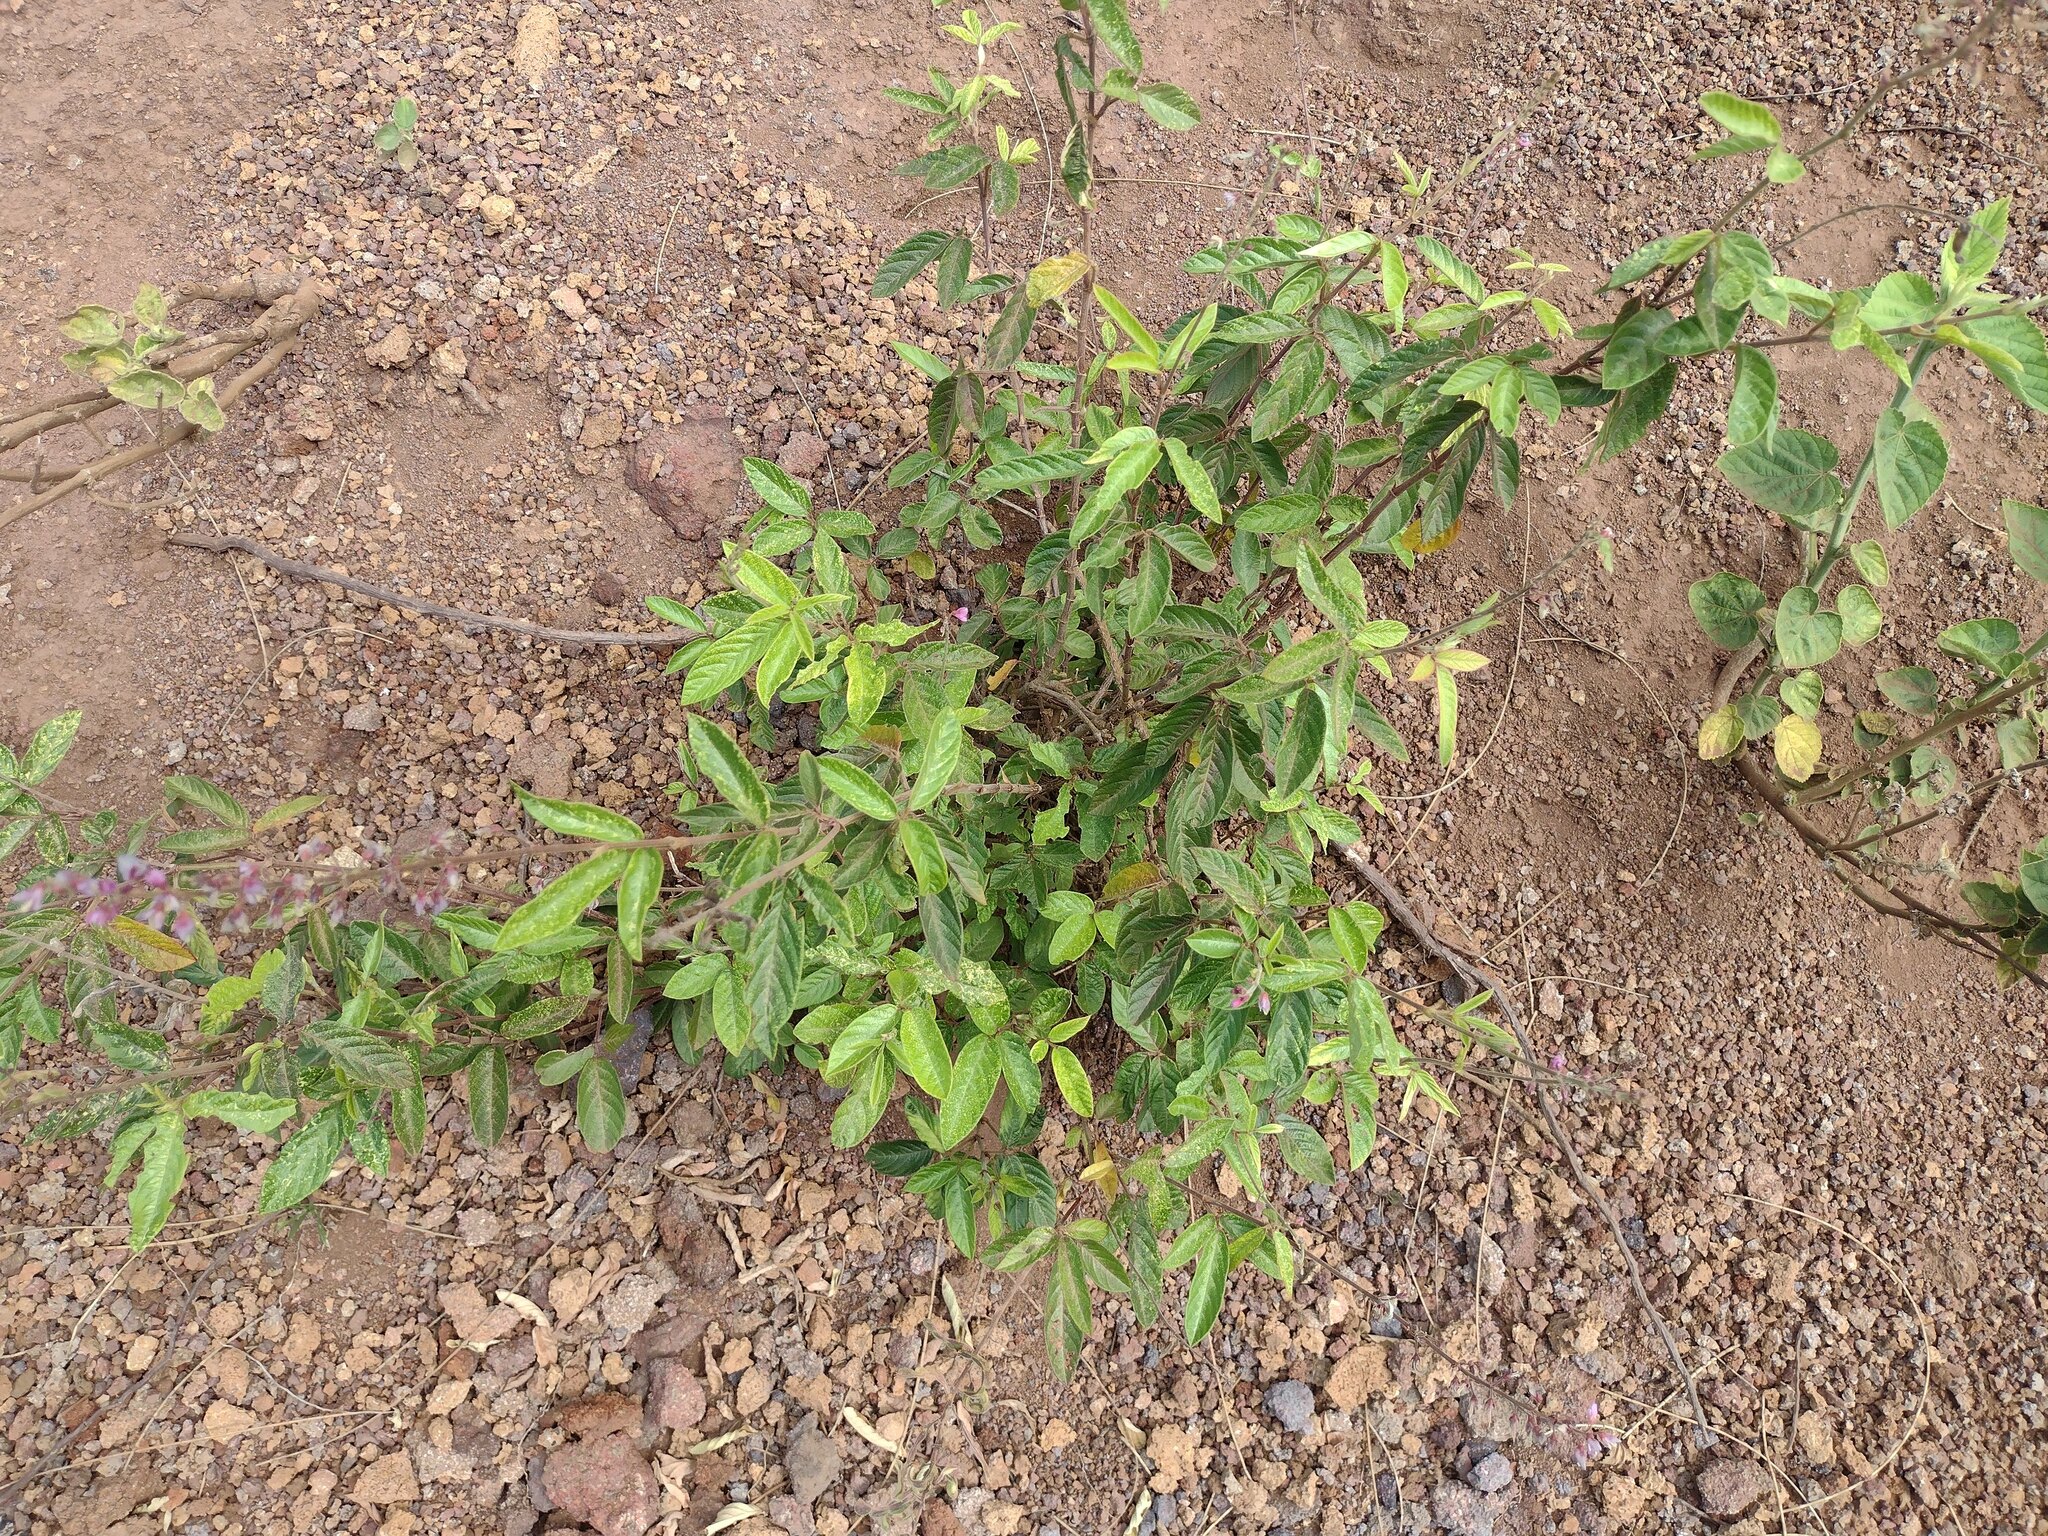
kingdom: Plantae
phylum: Tracheophyta
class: Magnoliopsida
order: Fabales
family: Fabaceae
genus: Desmodium
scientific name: Desmodium incanum
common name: Tickclover
